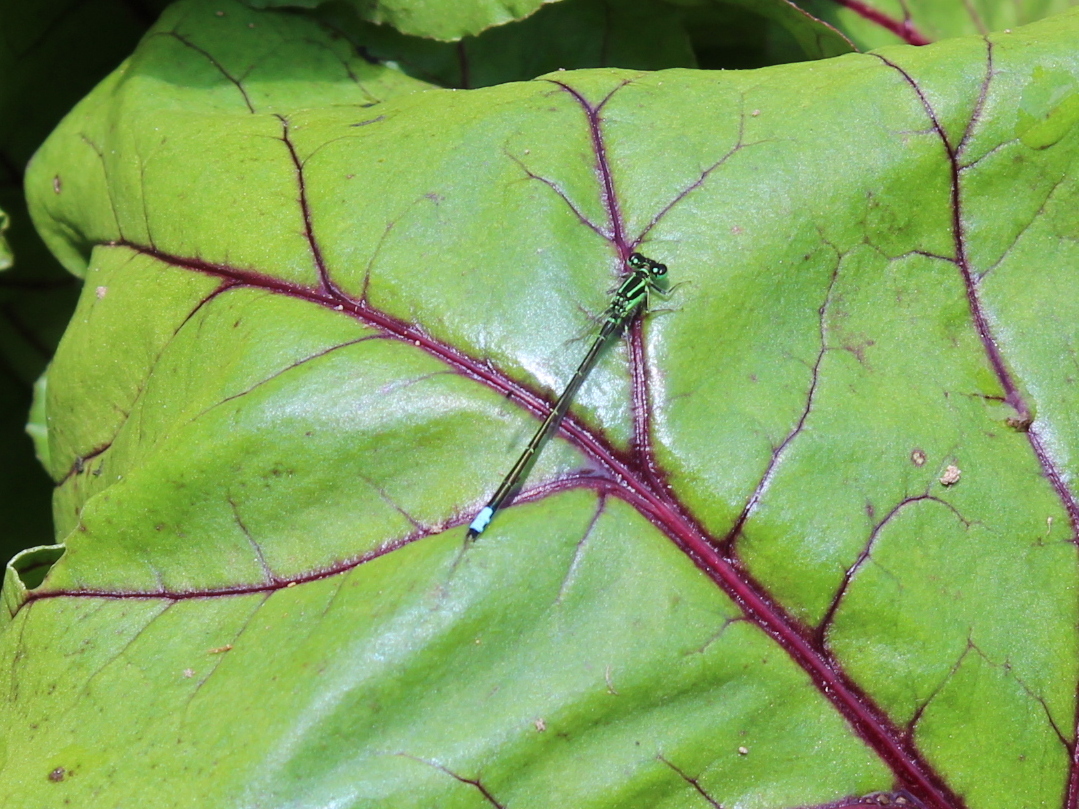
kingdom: Animalia
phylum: Arthropoda
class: Insecta
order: Odonata
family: Coenagrionidae
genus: Ischnura
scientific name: Ischnura verticalis
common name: Eastern forktail
